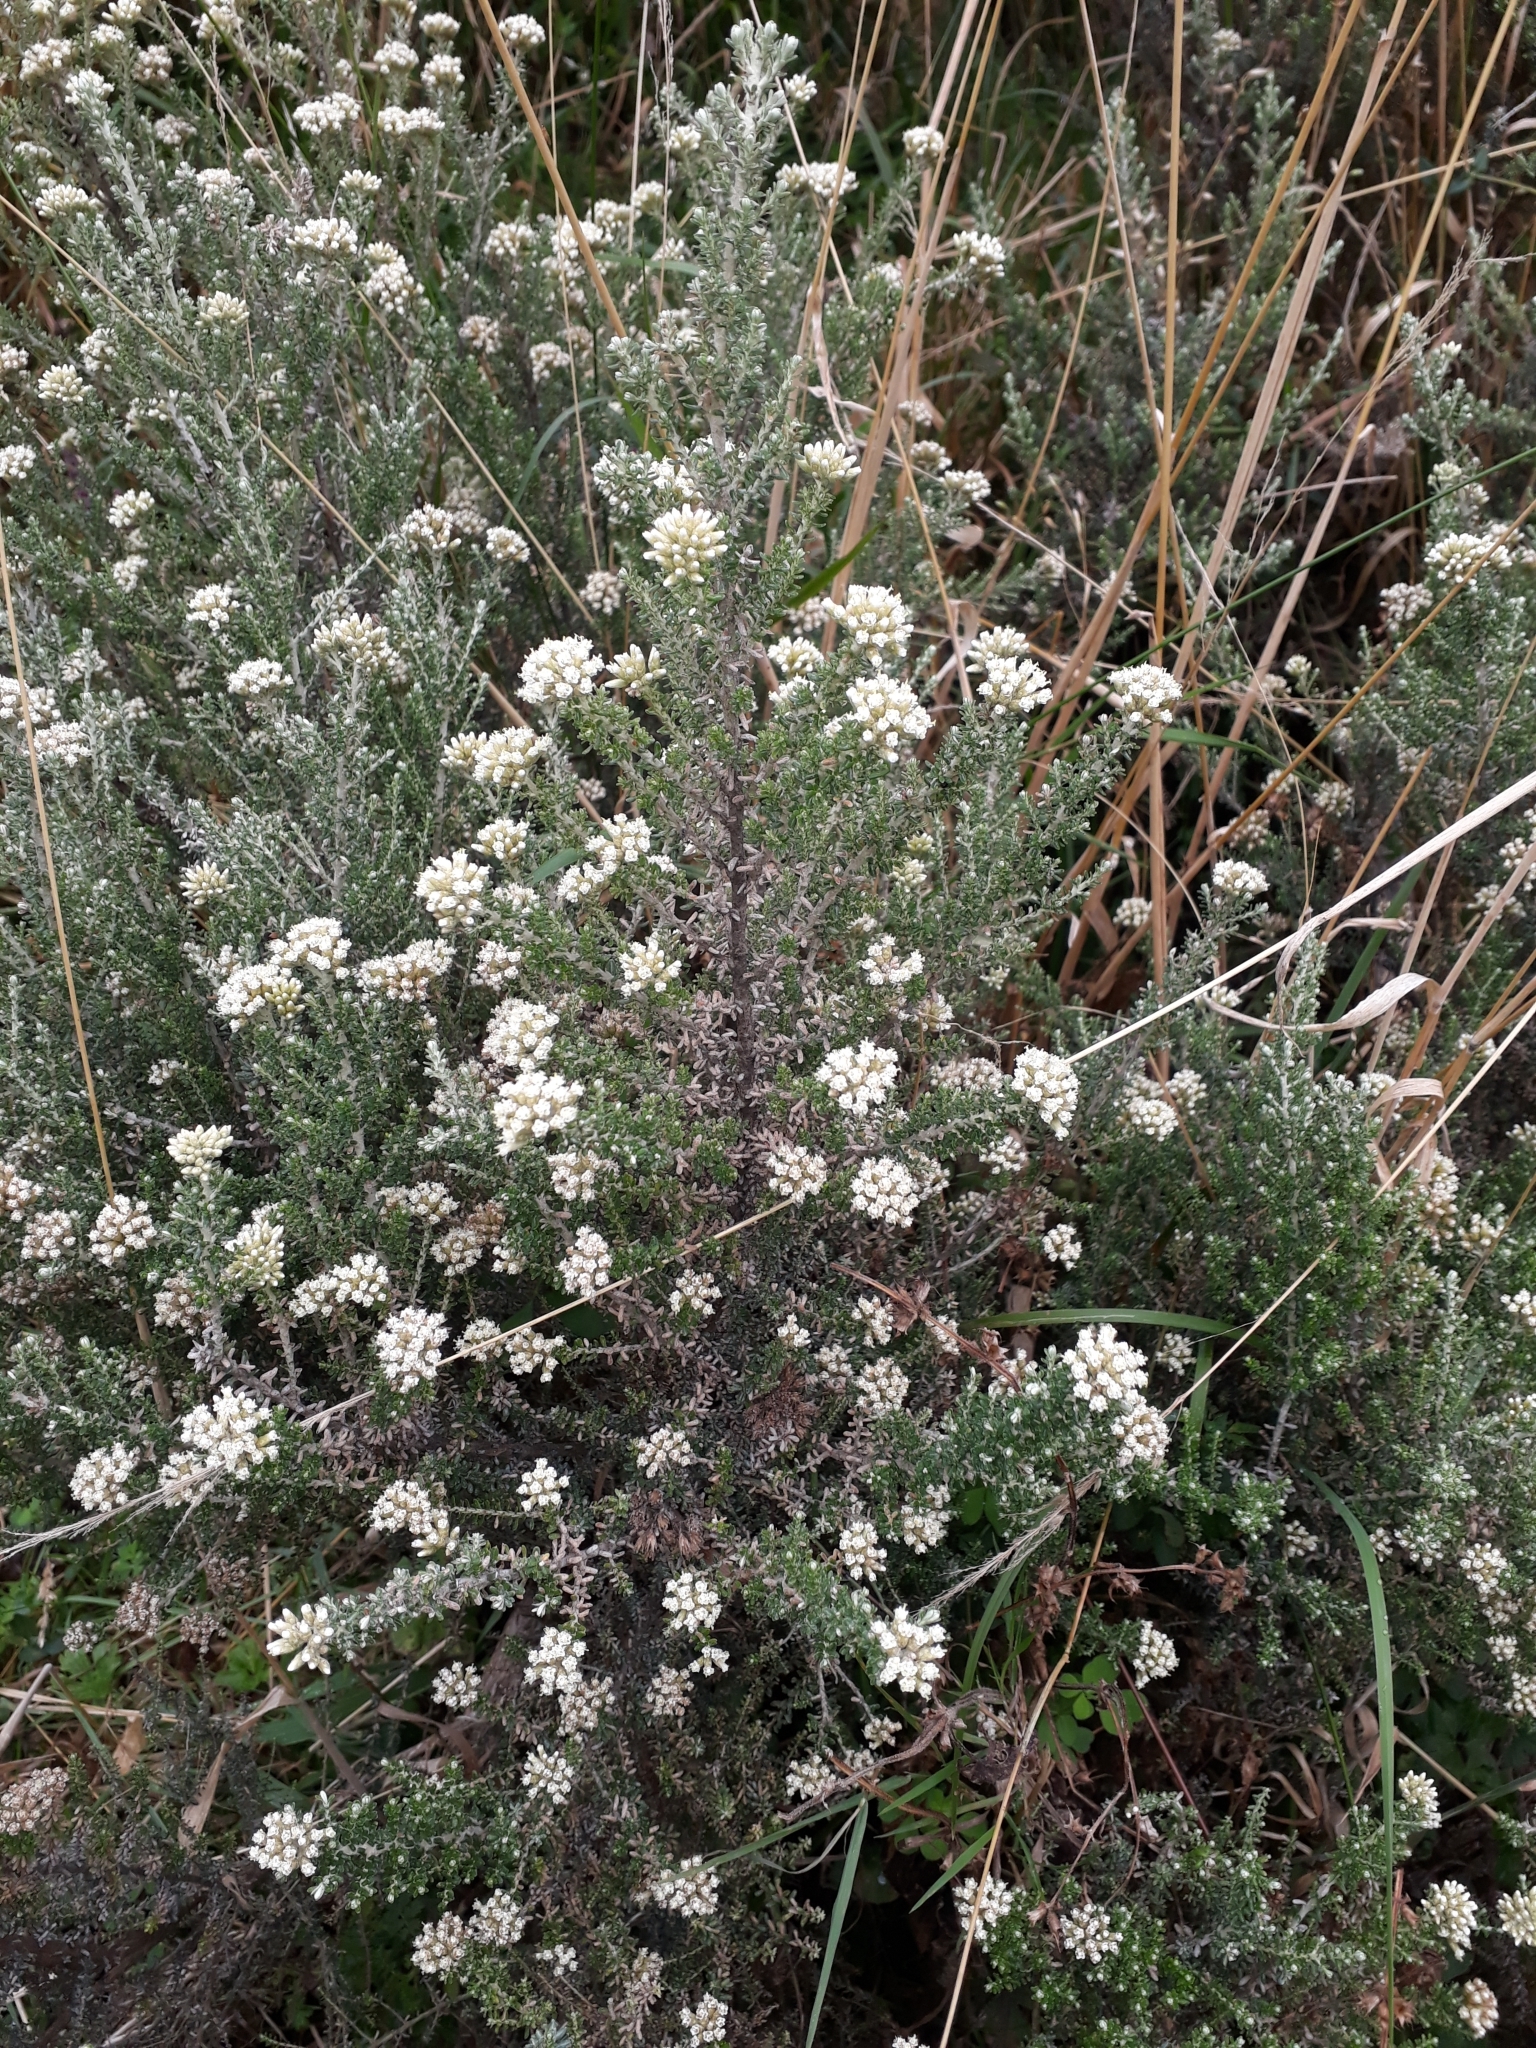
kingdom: Plantae
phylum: Tracheophyta
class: Magnoliopsida
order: Asterales
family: Asteraceae
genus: Ozothamnus
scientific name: Ozothamnus leptophyllus
